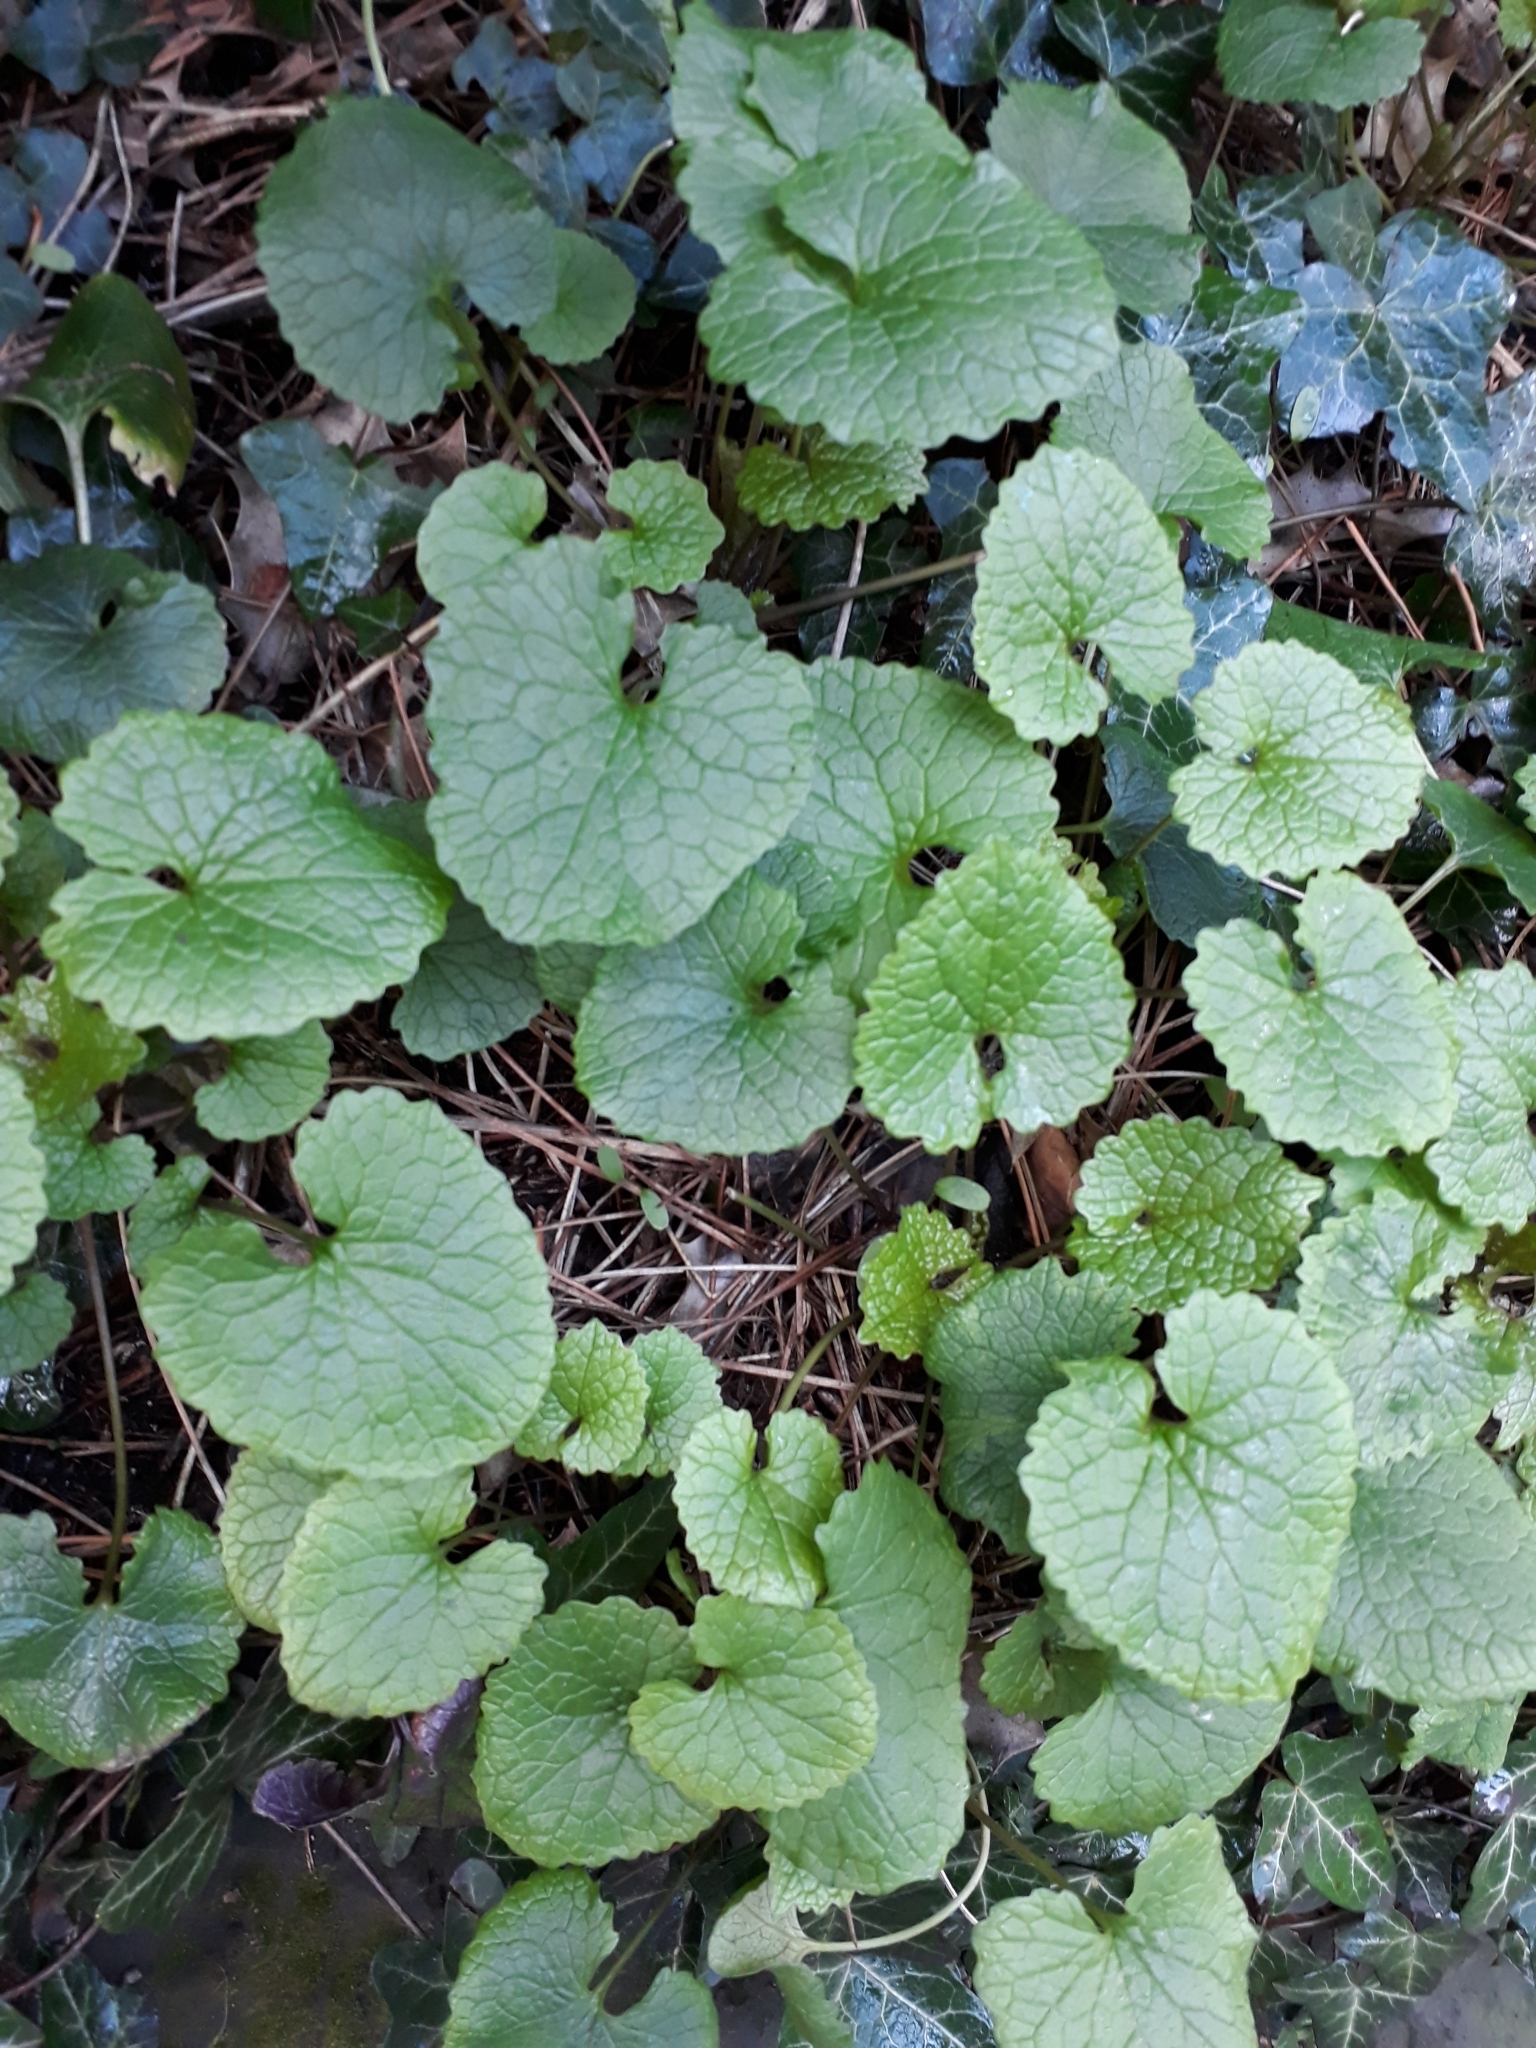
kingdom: Plantae
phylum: Tracheophyta
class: Magnoliopsida
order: Brassicales
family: Brassicaceae
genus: Alliaria
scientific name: Alliaria petiolata
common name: Garlic mustard
